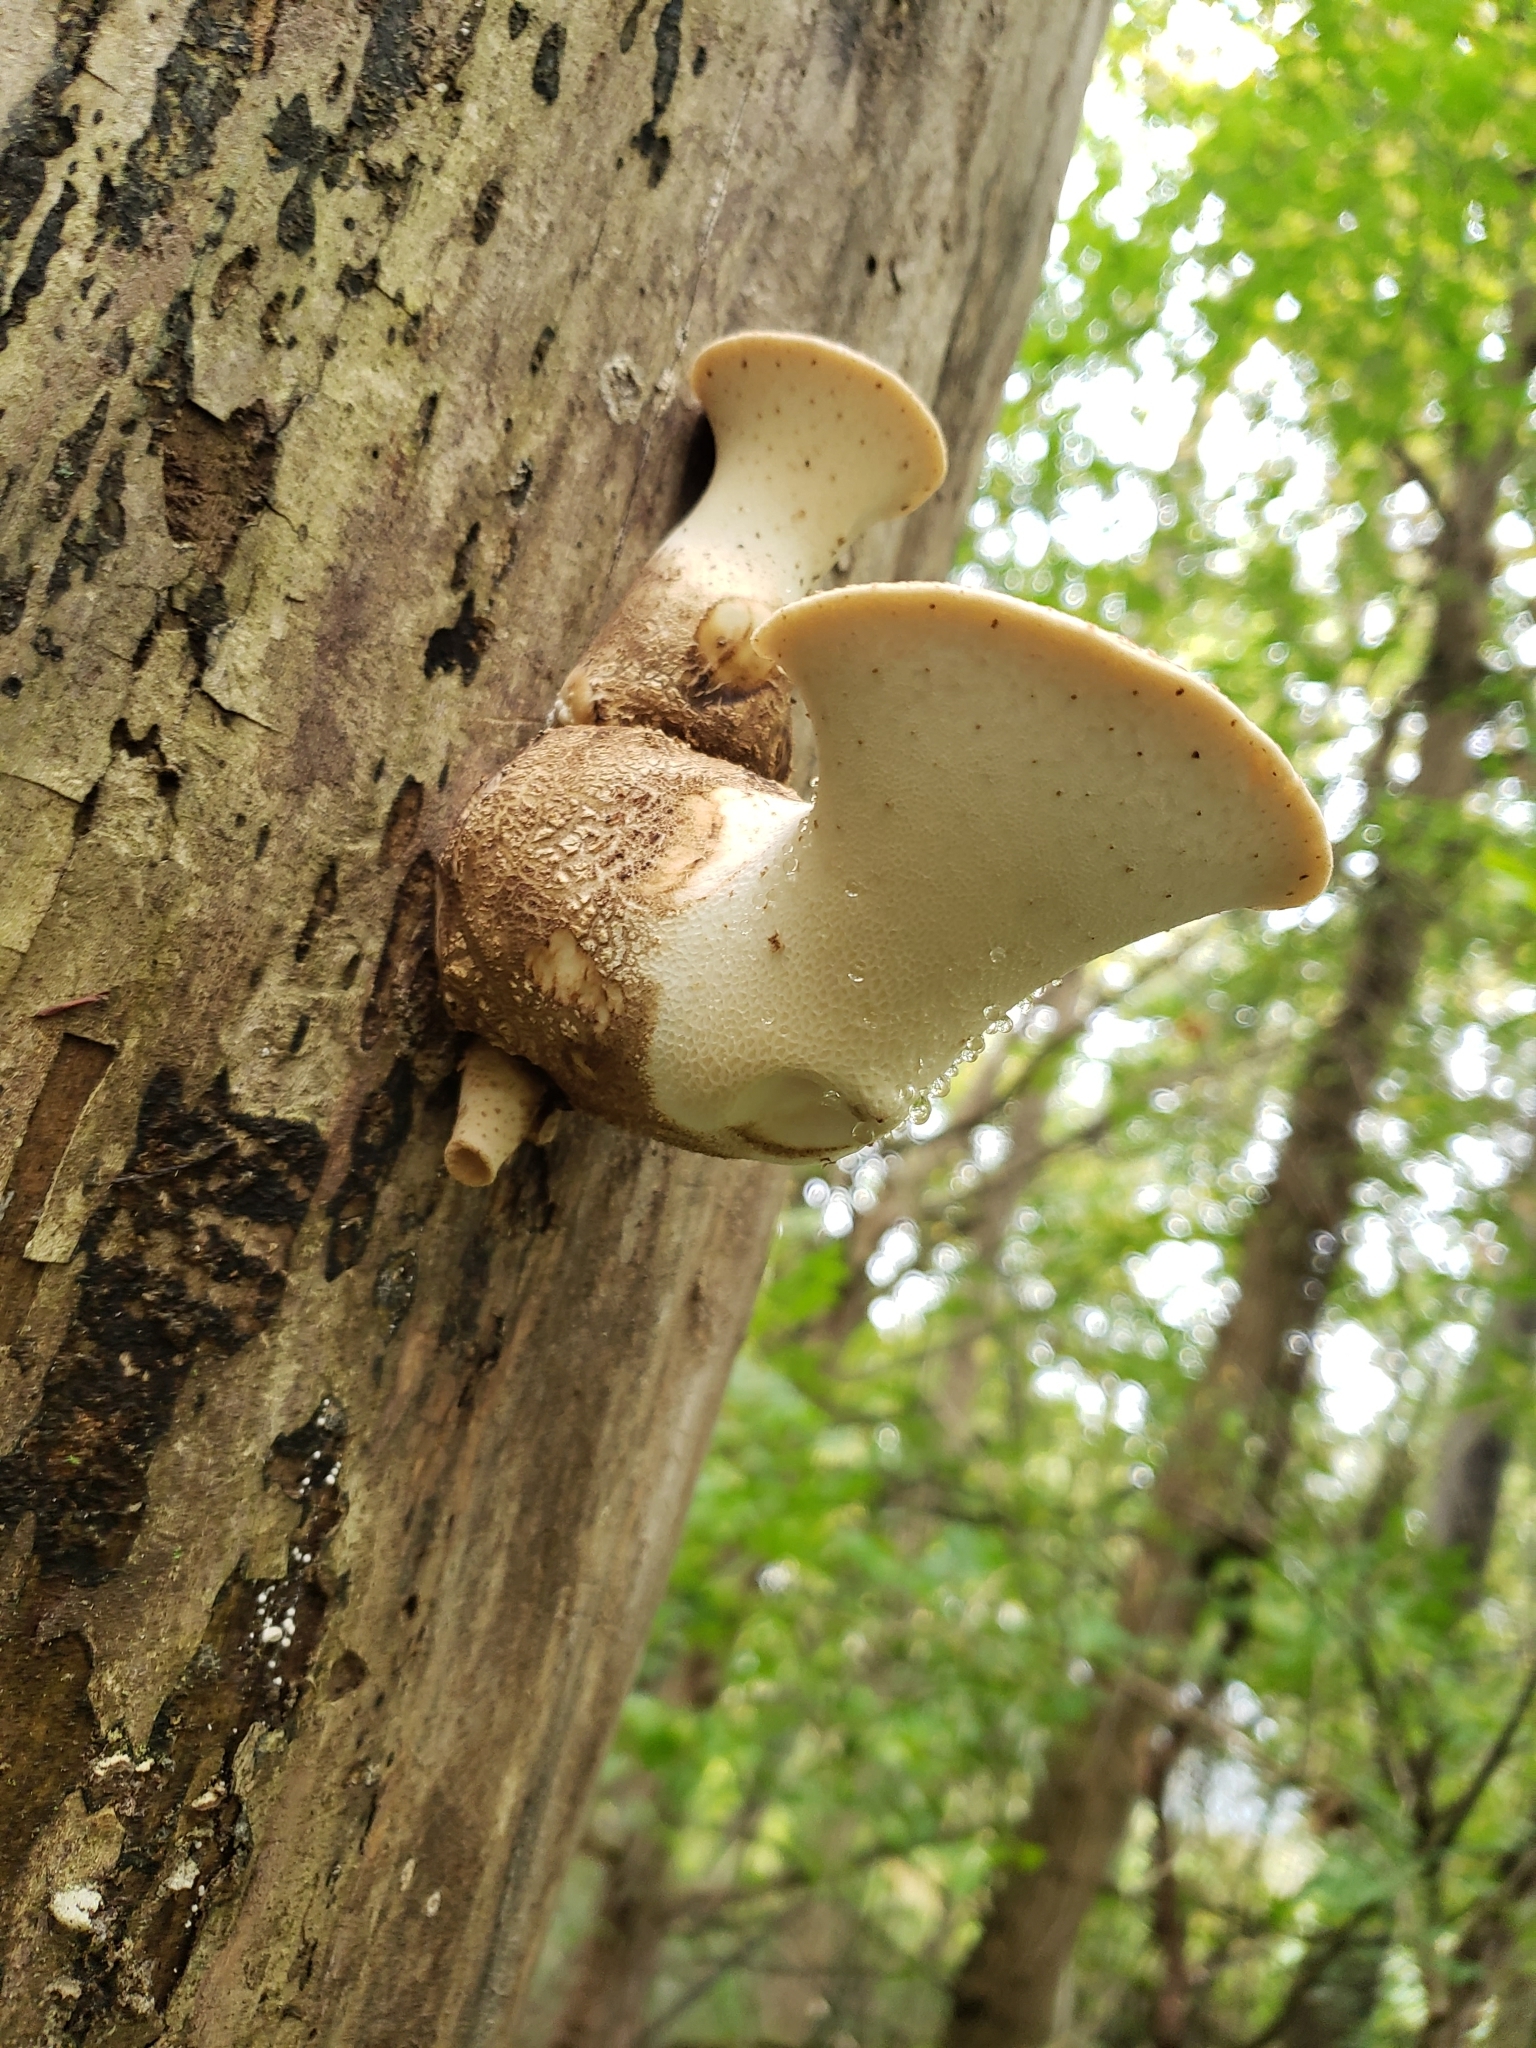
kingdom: Fungi
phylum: Basidiomycota
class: Agaricomycetes
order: Polyporales
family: Polyporaceae
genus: Cerioporus
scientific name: Cerioporus squamosus
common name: Dryad's saddle
